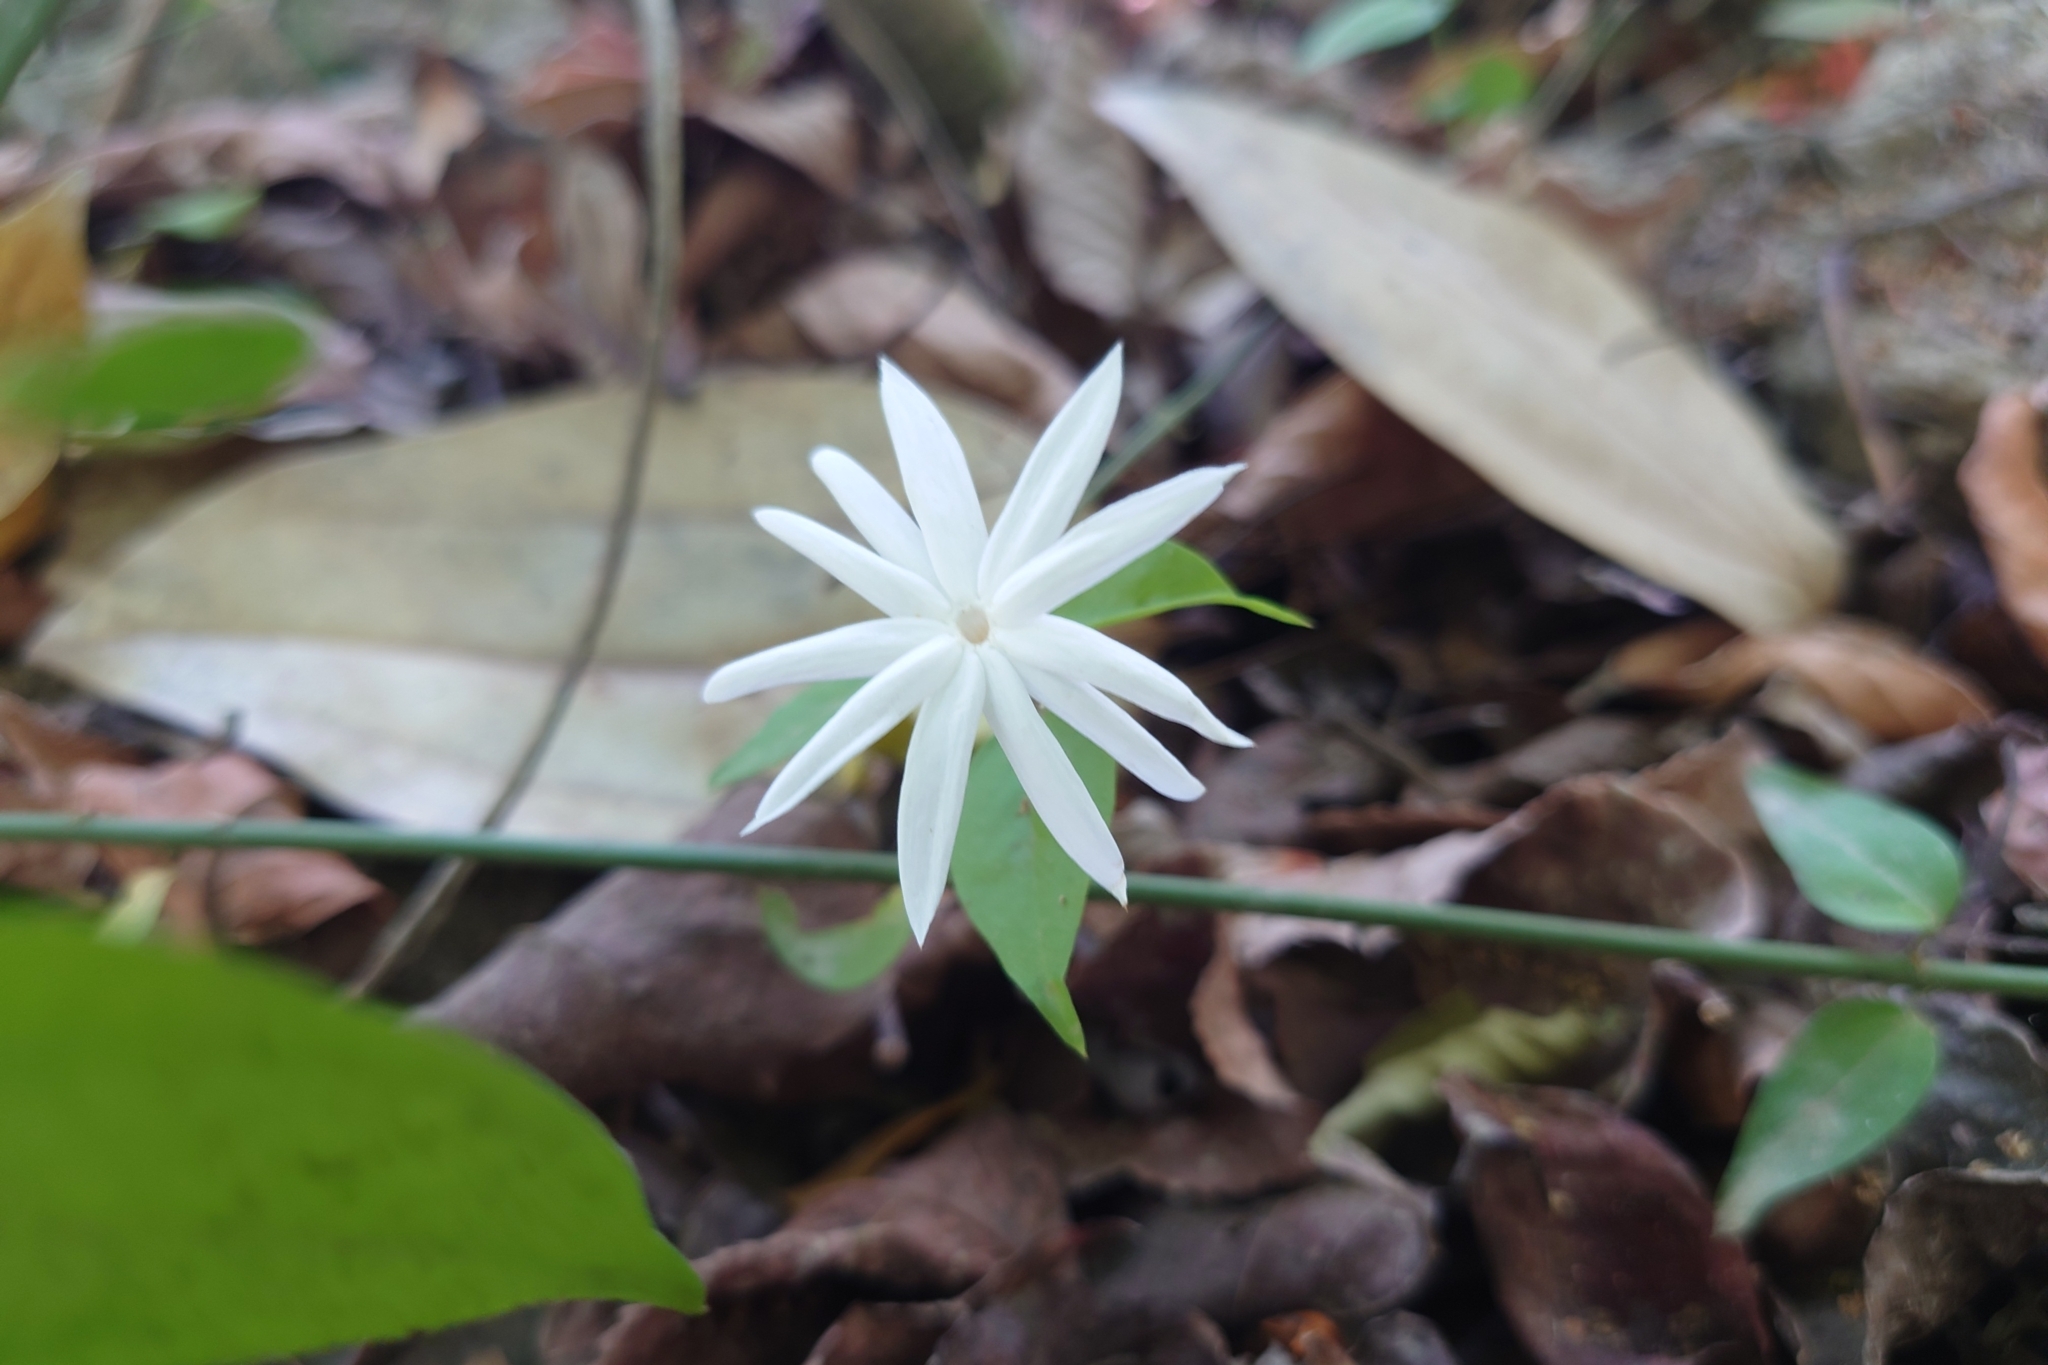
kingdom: Plantae
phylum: Tracheophyta
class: Magnoliopsida
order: Lamiales
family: Oleaceae
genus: Jasminum
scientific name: Jasminum nervosum
